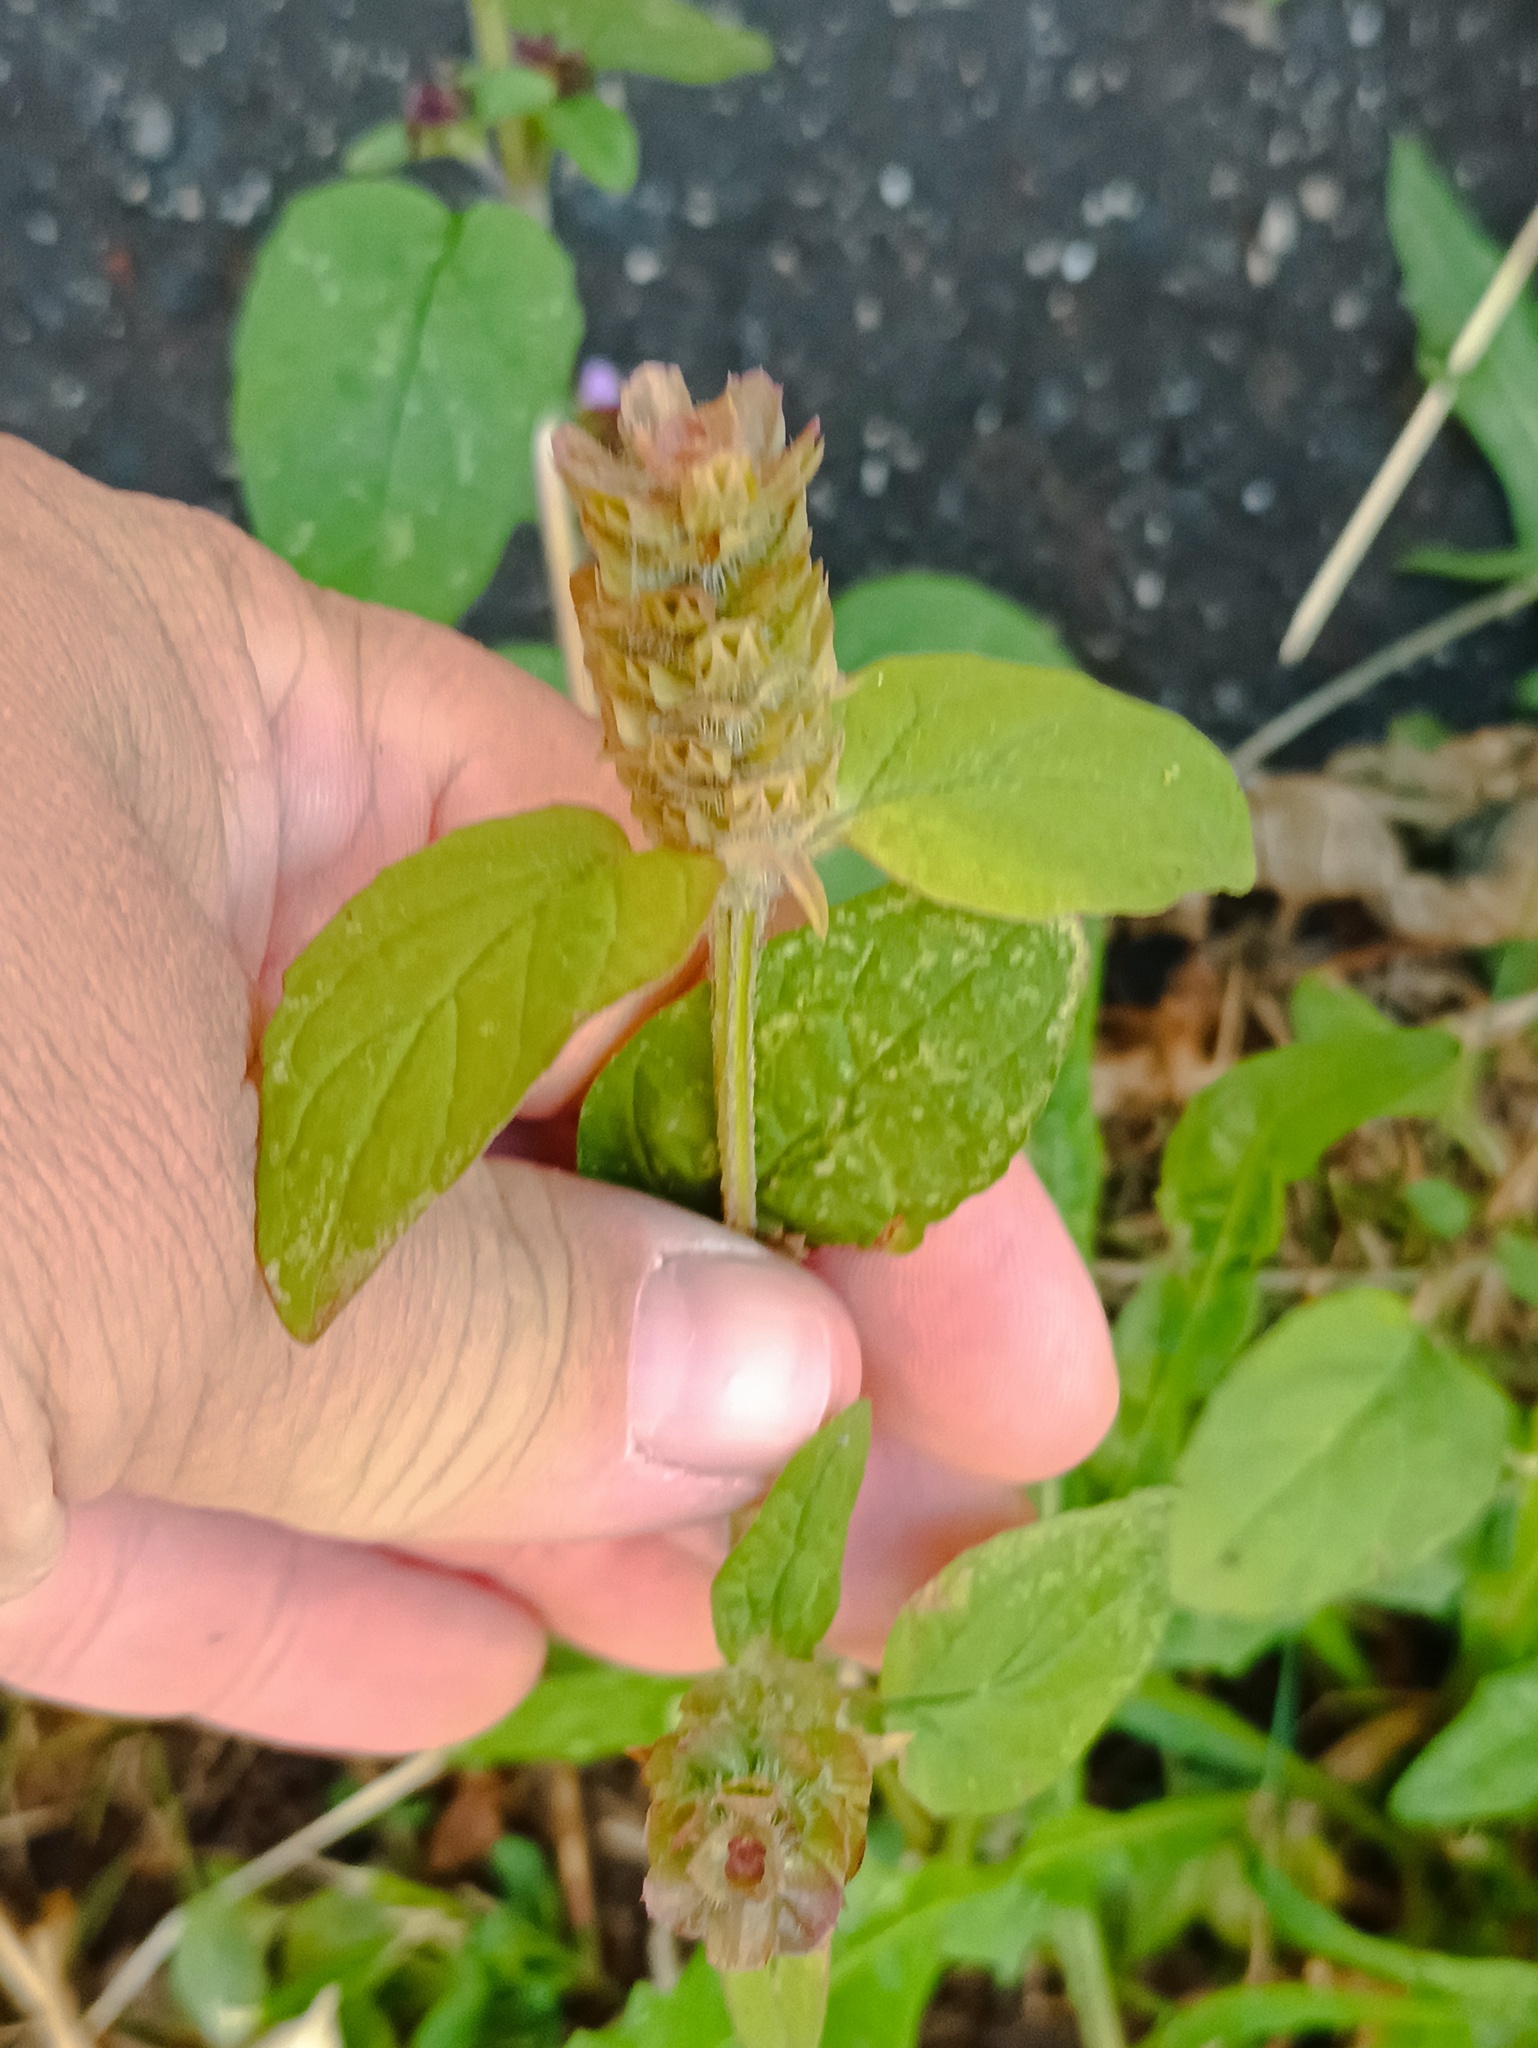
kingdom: Plantae
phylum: Tracheophyta
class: Magnoliopsida
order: Lamiales
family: Lamiaceae
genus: Prunella
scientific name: Prunella vulgaris
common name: Heal-all
